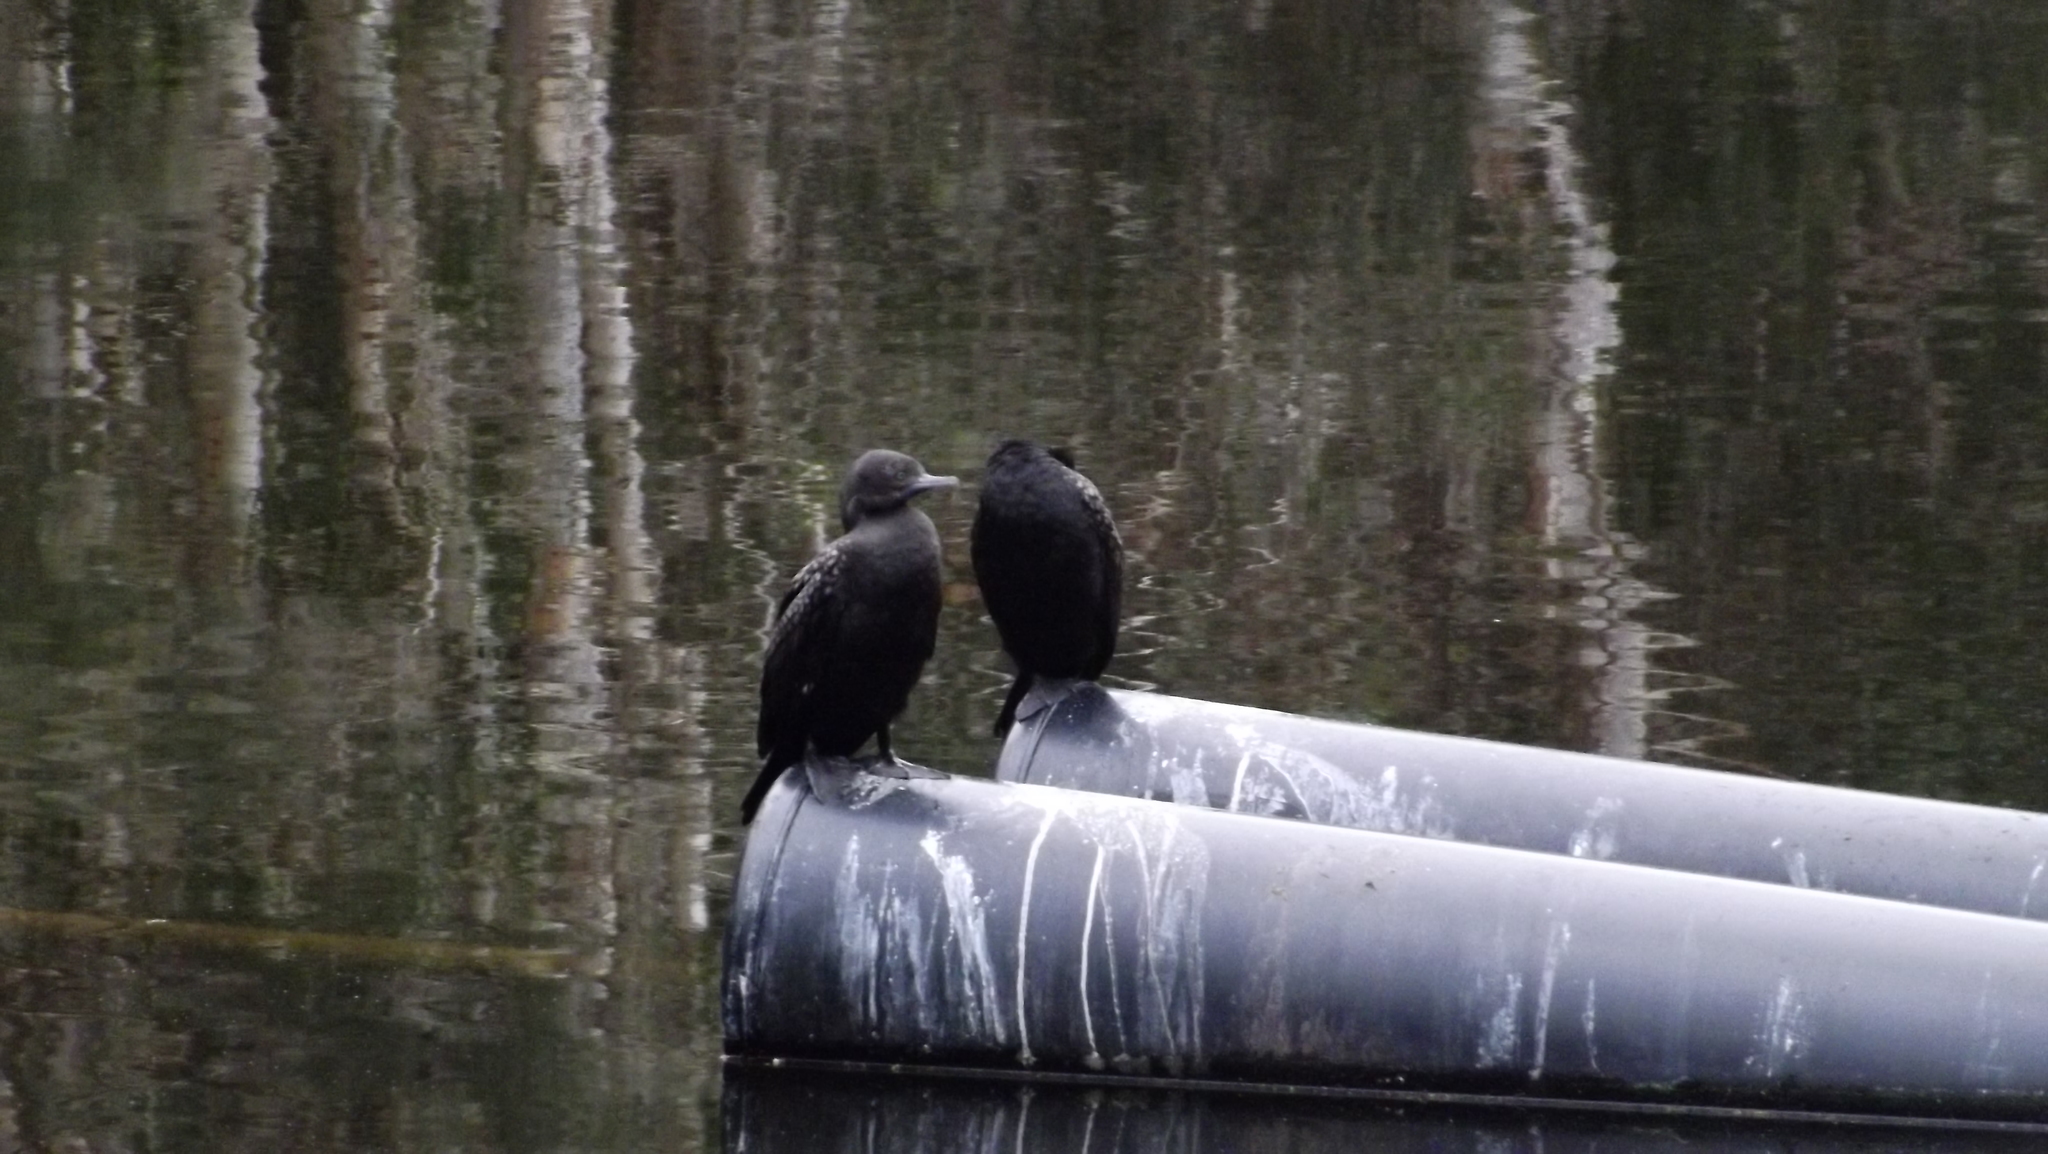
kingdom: Animalia
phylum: Chordata
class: Aves
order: Suliformes
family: Phalacrocoracidae
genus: Phalacrocorax
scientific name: Phalacrocorax sulcirostris
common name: Little black cormorant
